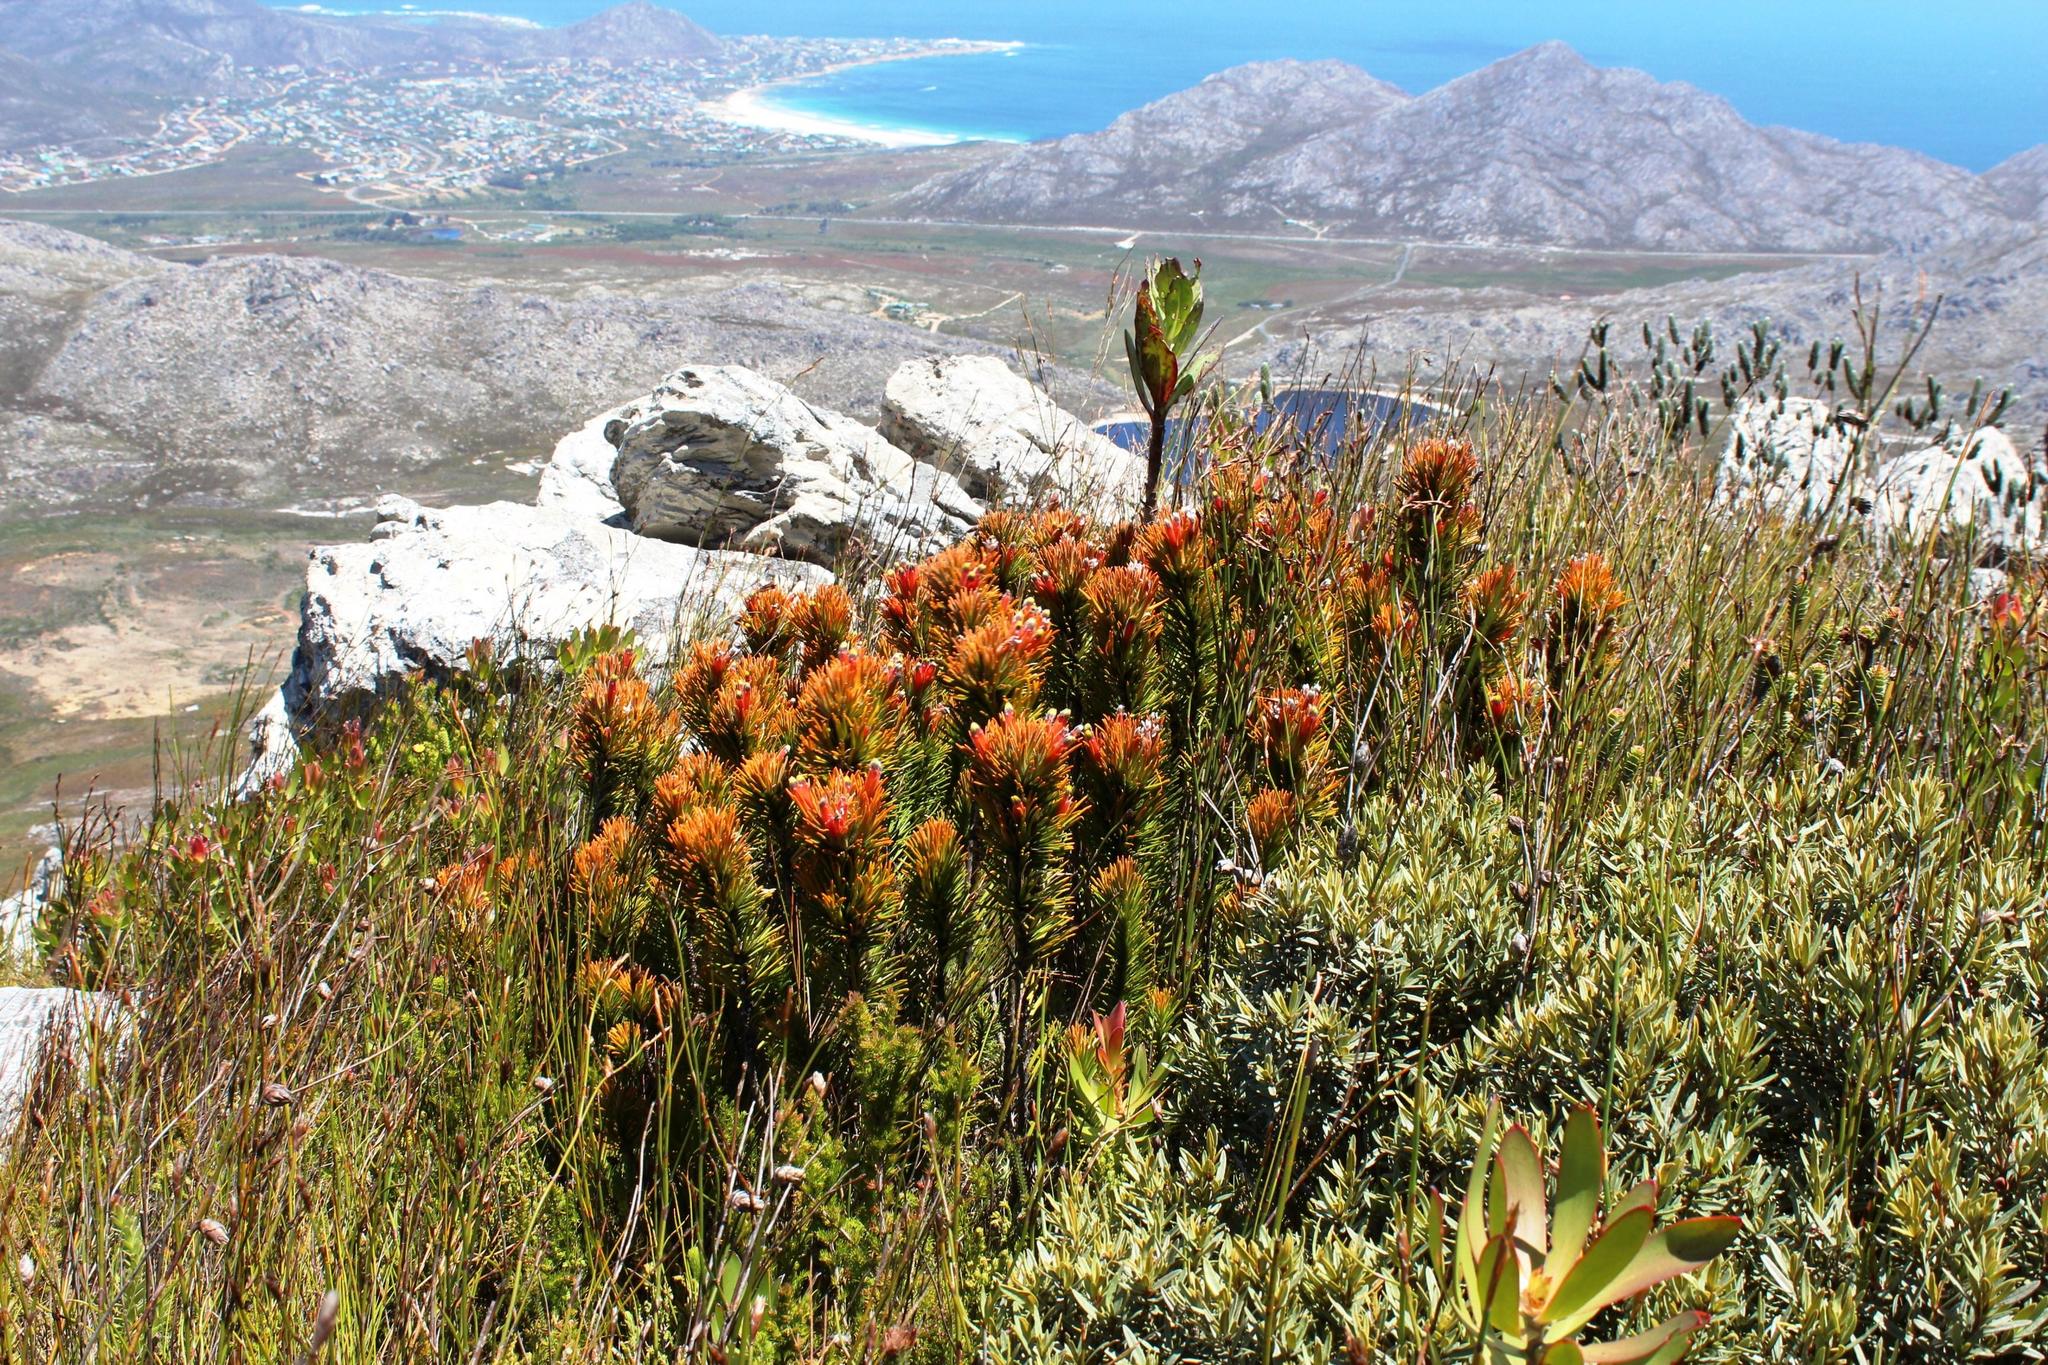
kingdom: Plantae
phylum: Tracheophyta
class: Magnoliopsida
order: Lamiales
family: Stilbaceae
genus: Retzia
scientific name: Retzia capensis
